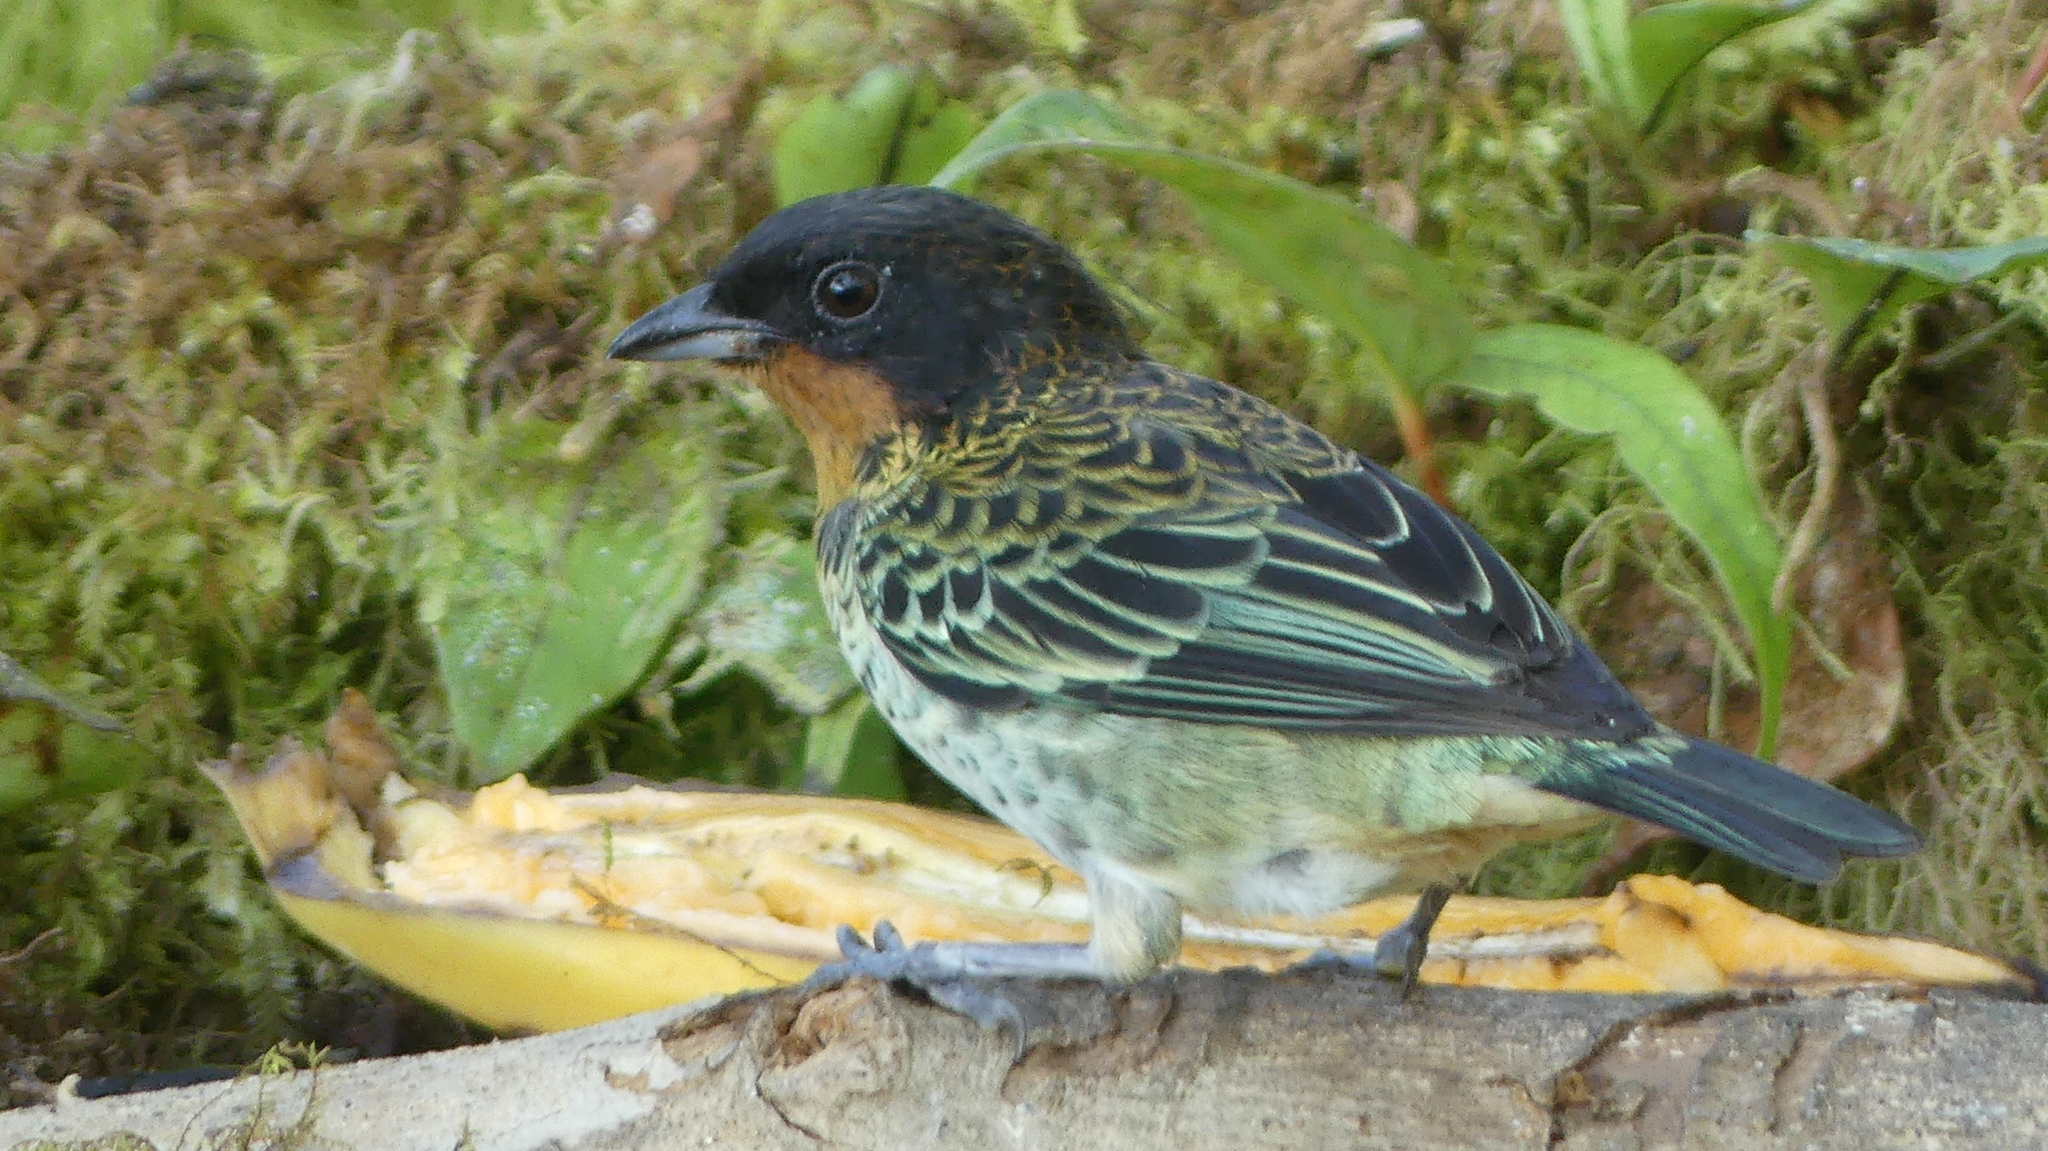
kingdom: Animalia
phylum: Chordata
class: Aves
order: Passeriformes
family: Thraupidae
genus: Ixothraupis
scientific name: Ixothraupis rufigula
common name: Rufous-throated tanager
